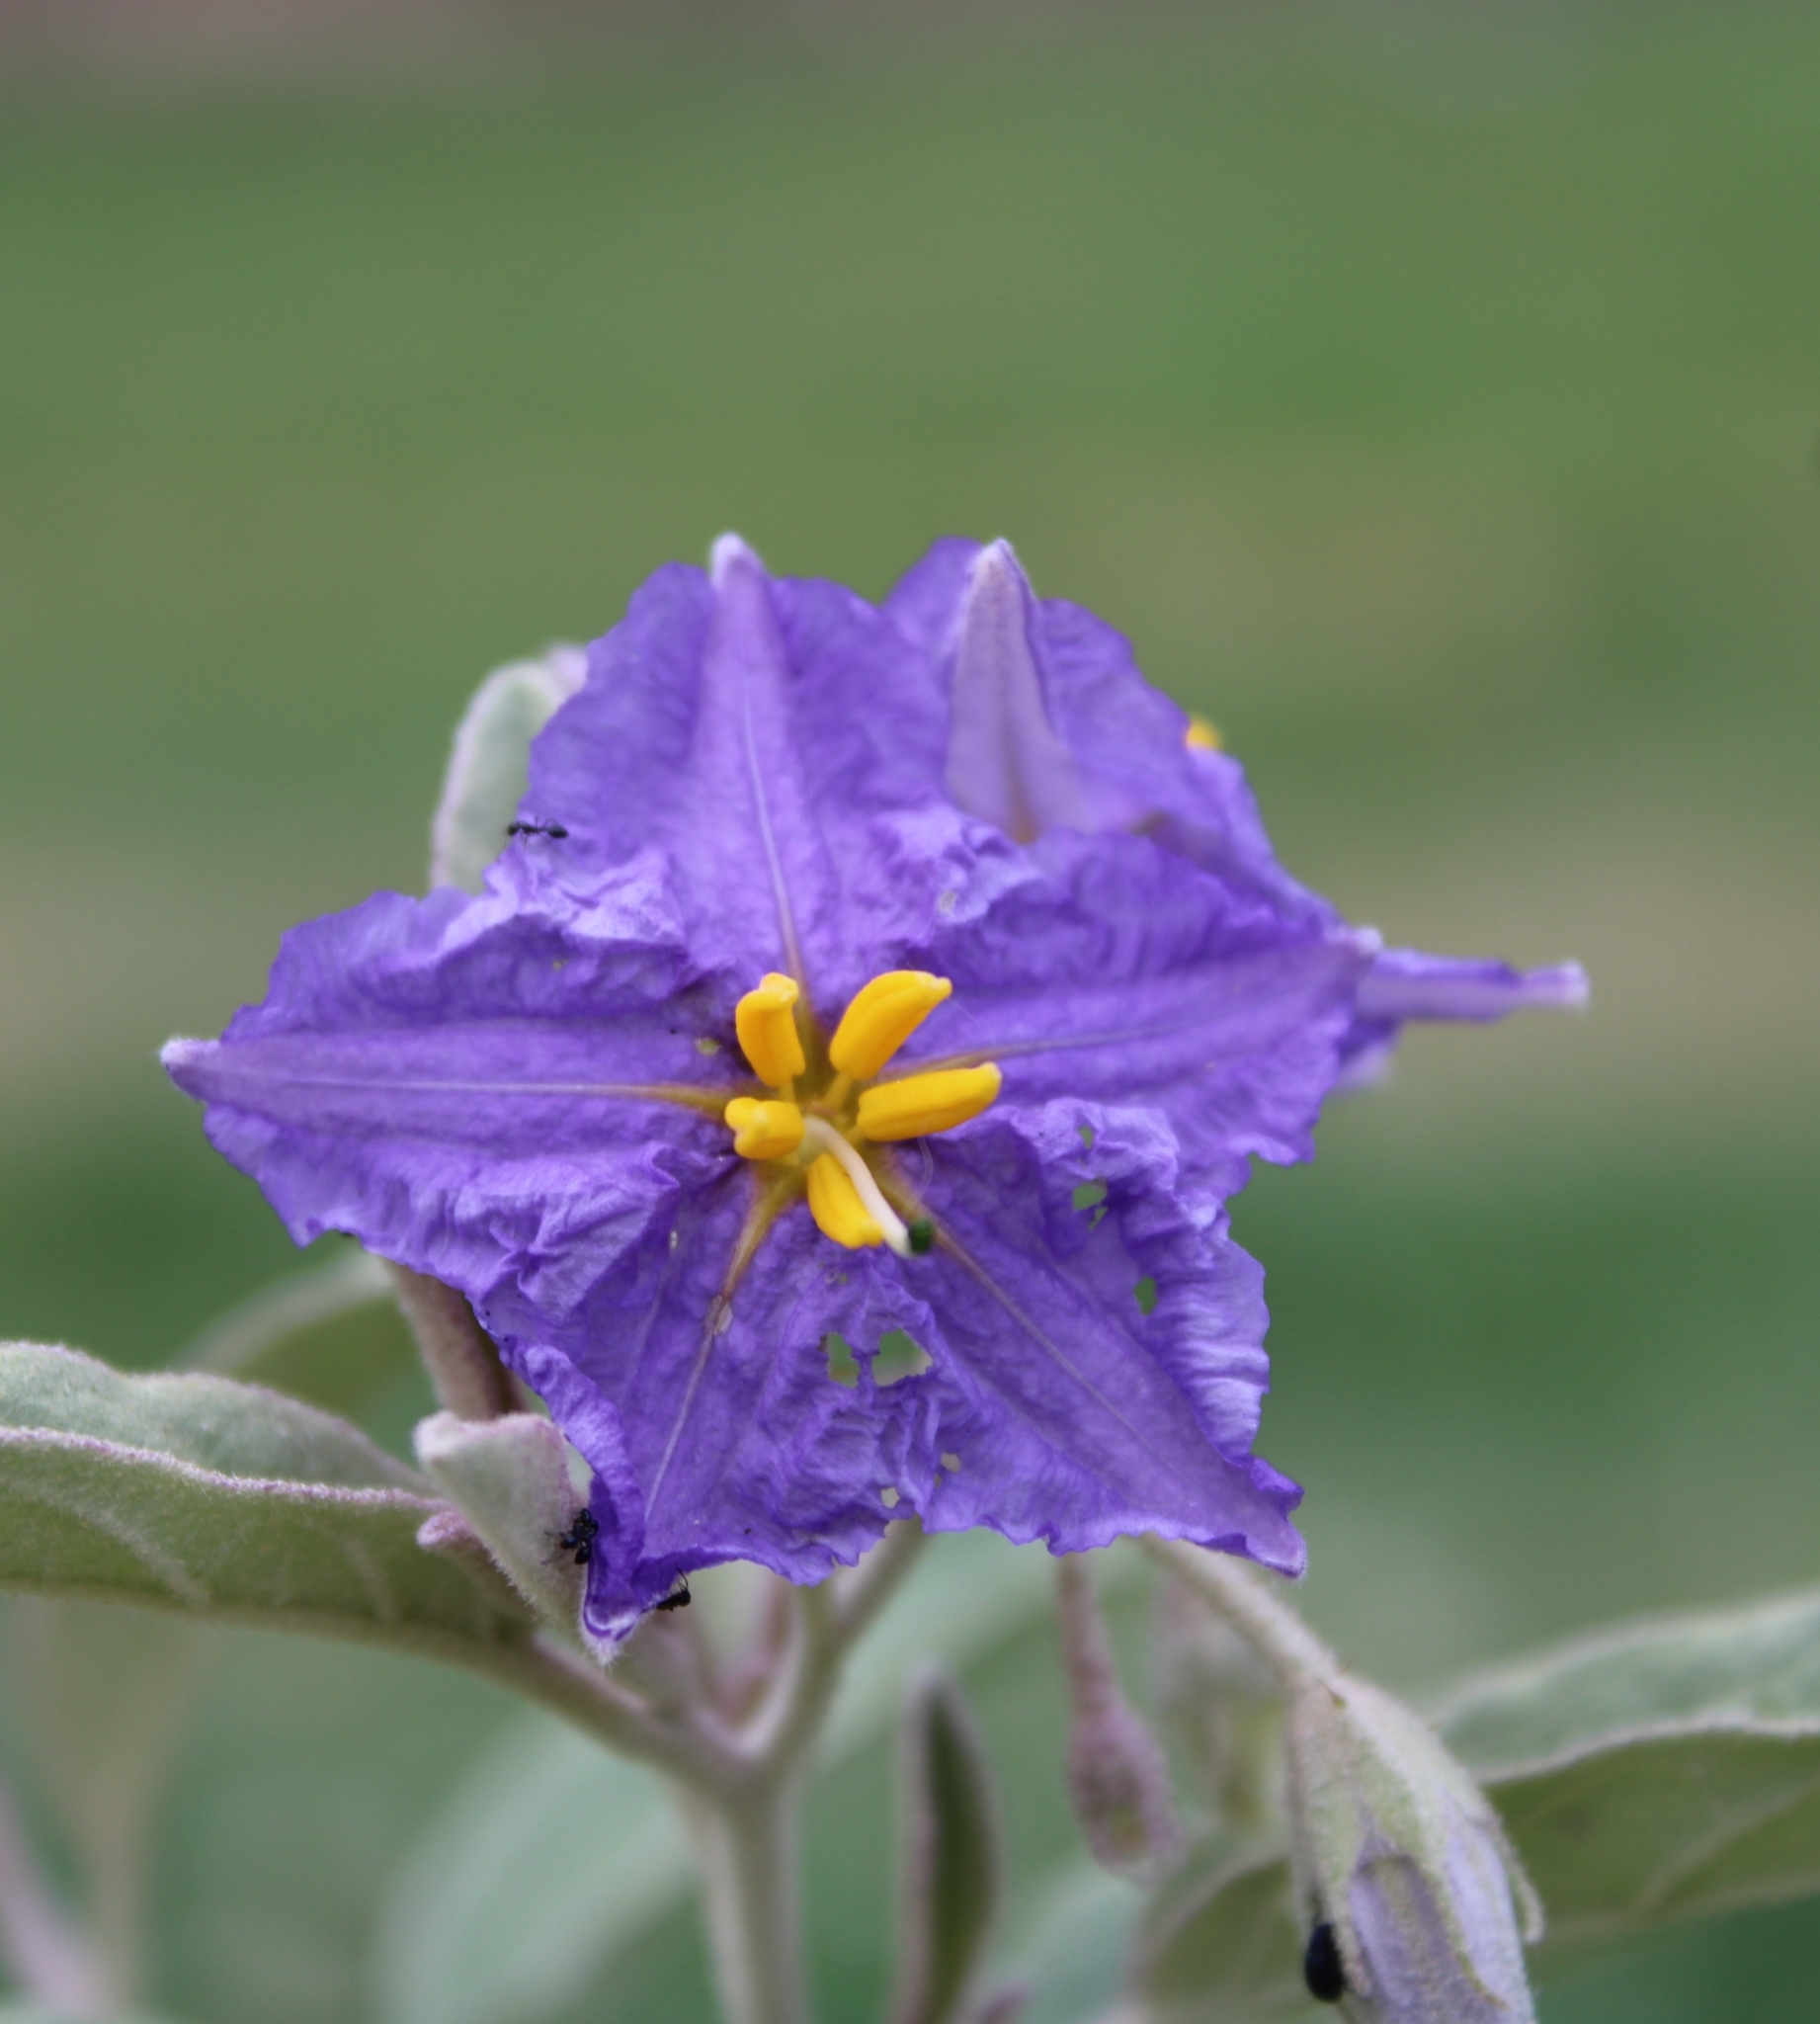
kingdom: Plantae
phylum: Tracheophyta
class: Magnoliopsida
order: Solanales
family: Solanaceae
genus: Solanum
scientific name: Solanum elaeagnifolium
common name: Silverleaf nightshade
